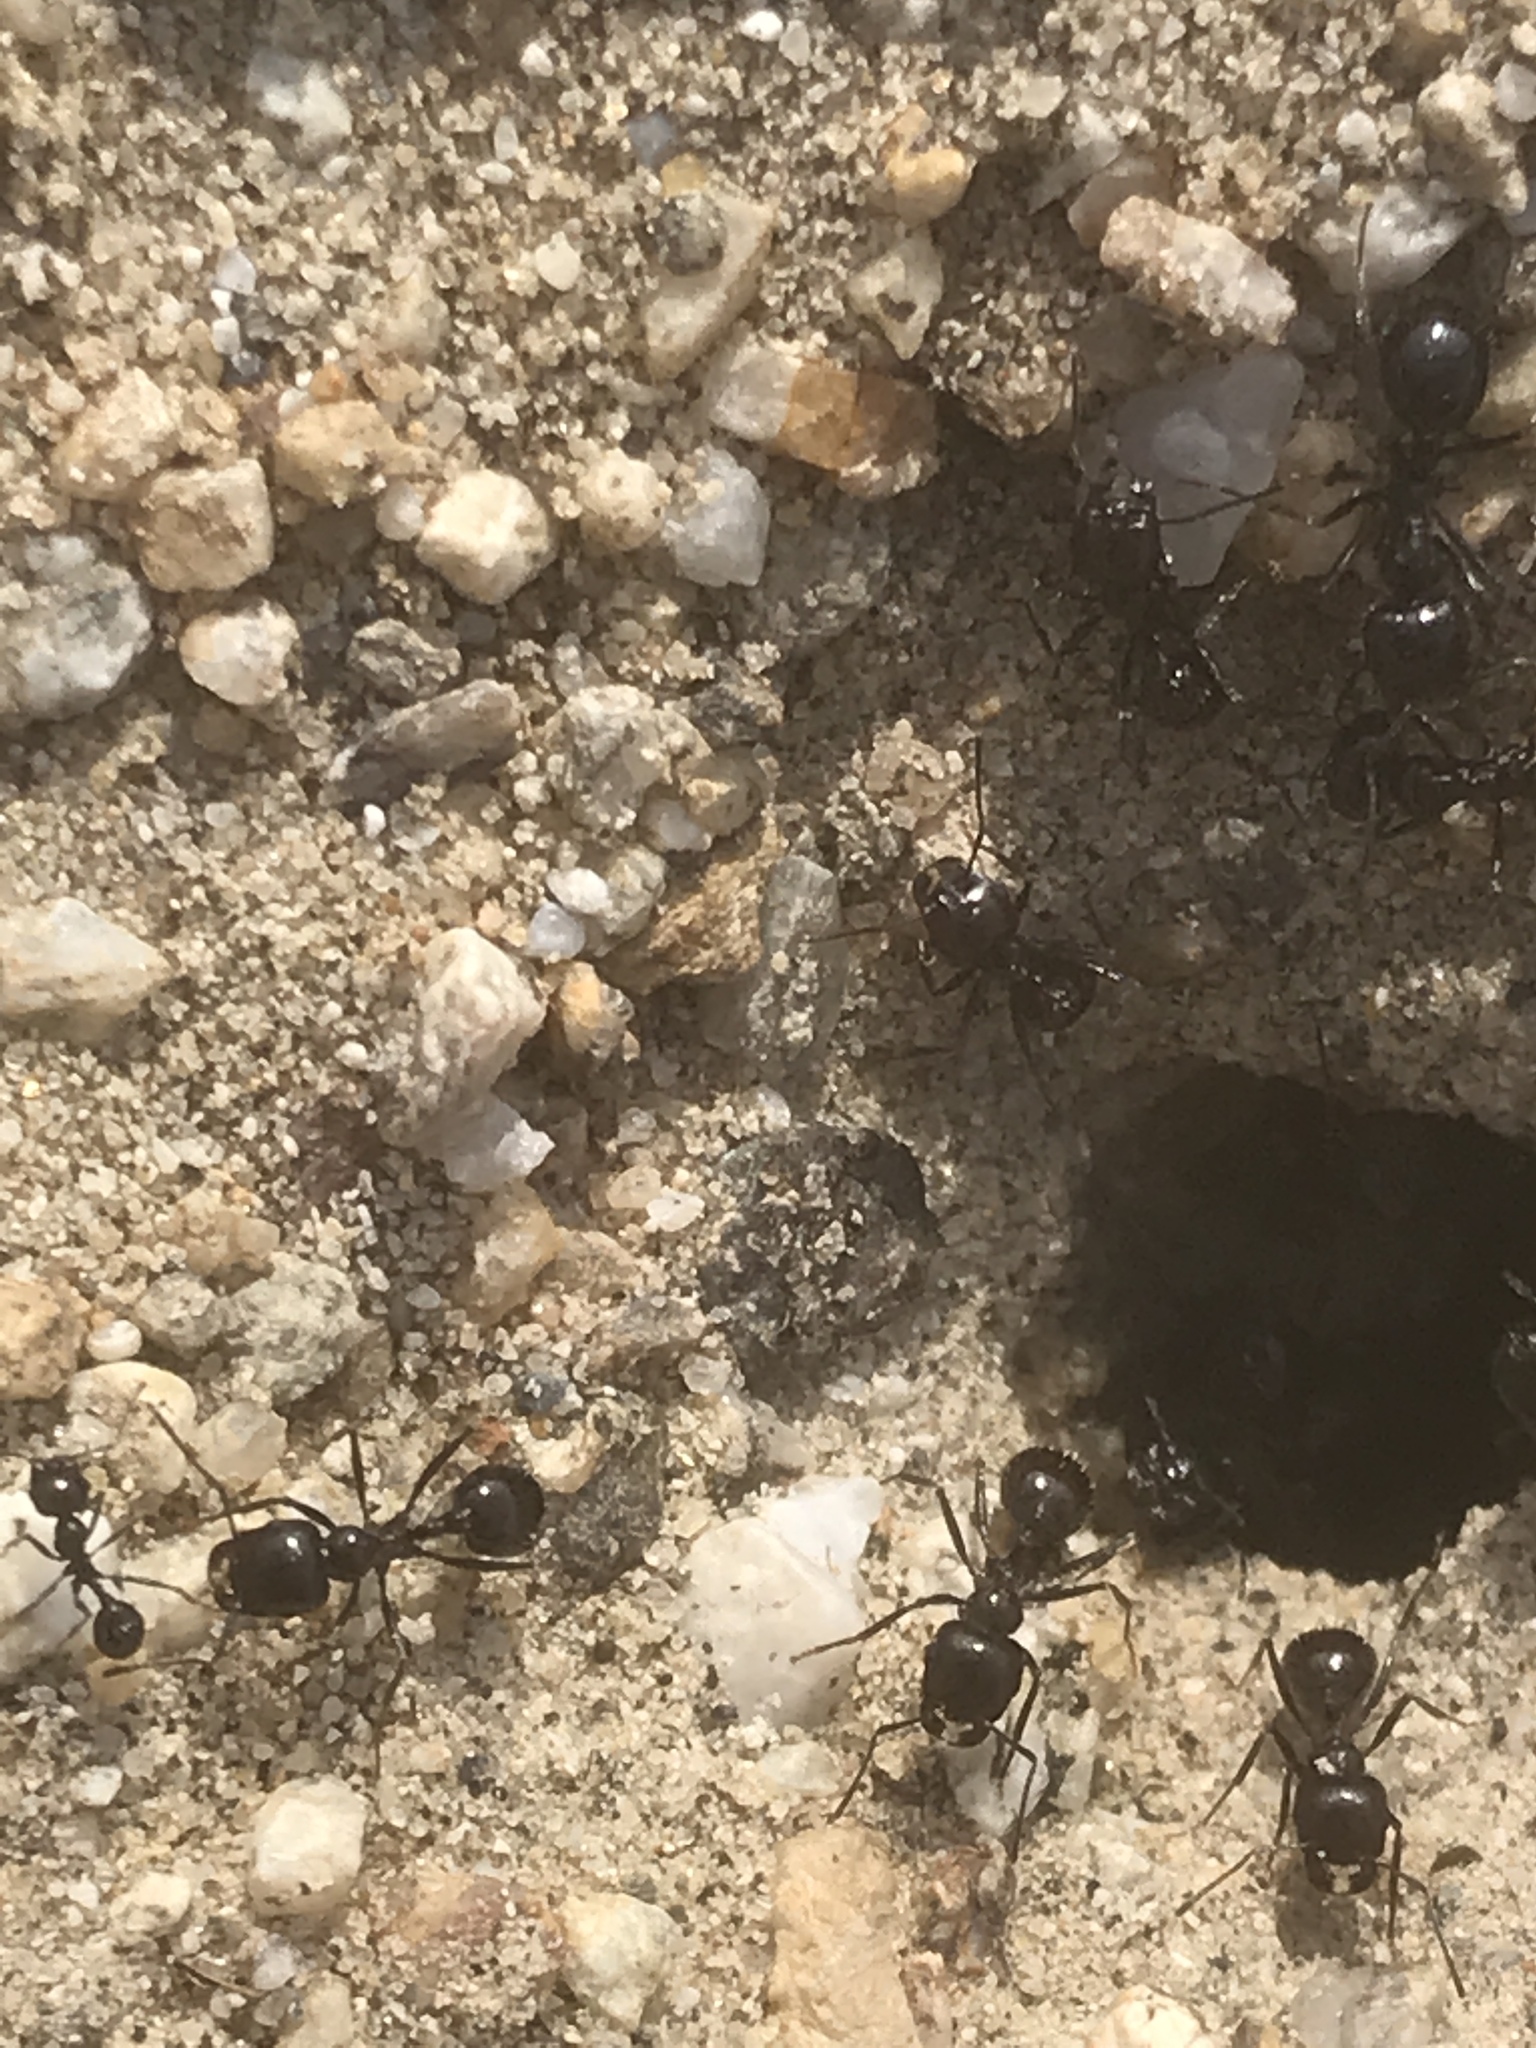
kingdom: Animalia
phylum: Arthropoda
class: Insecta
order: Hymenoptera
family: Formicidae
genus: Messor
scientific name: Messor pergandei
